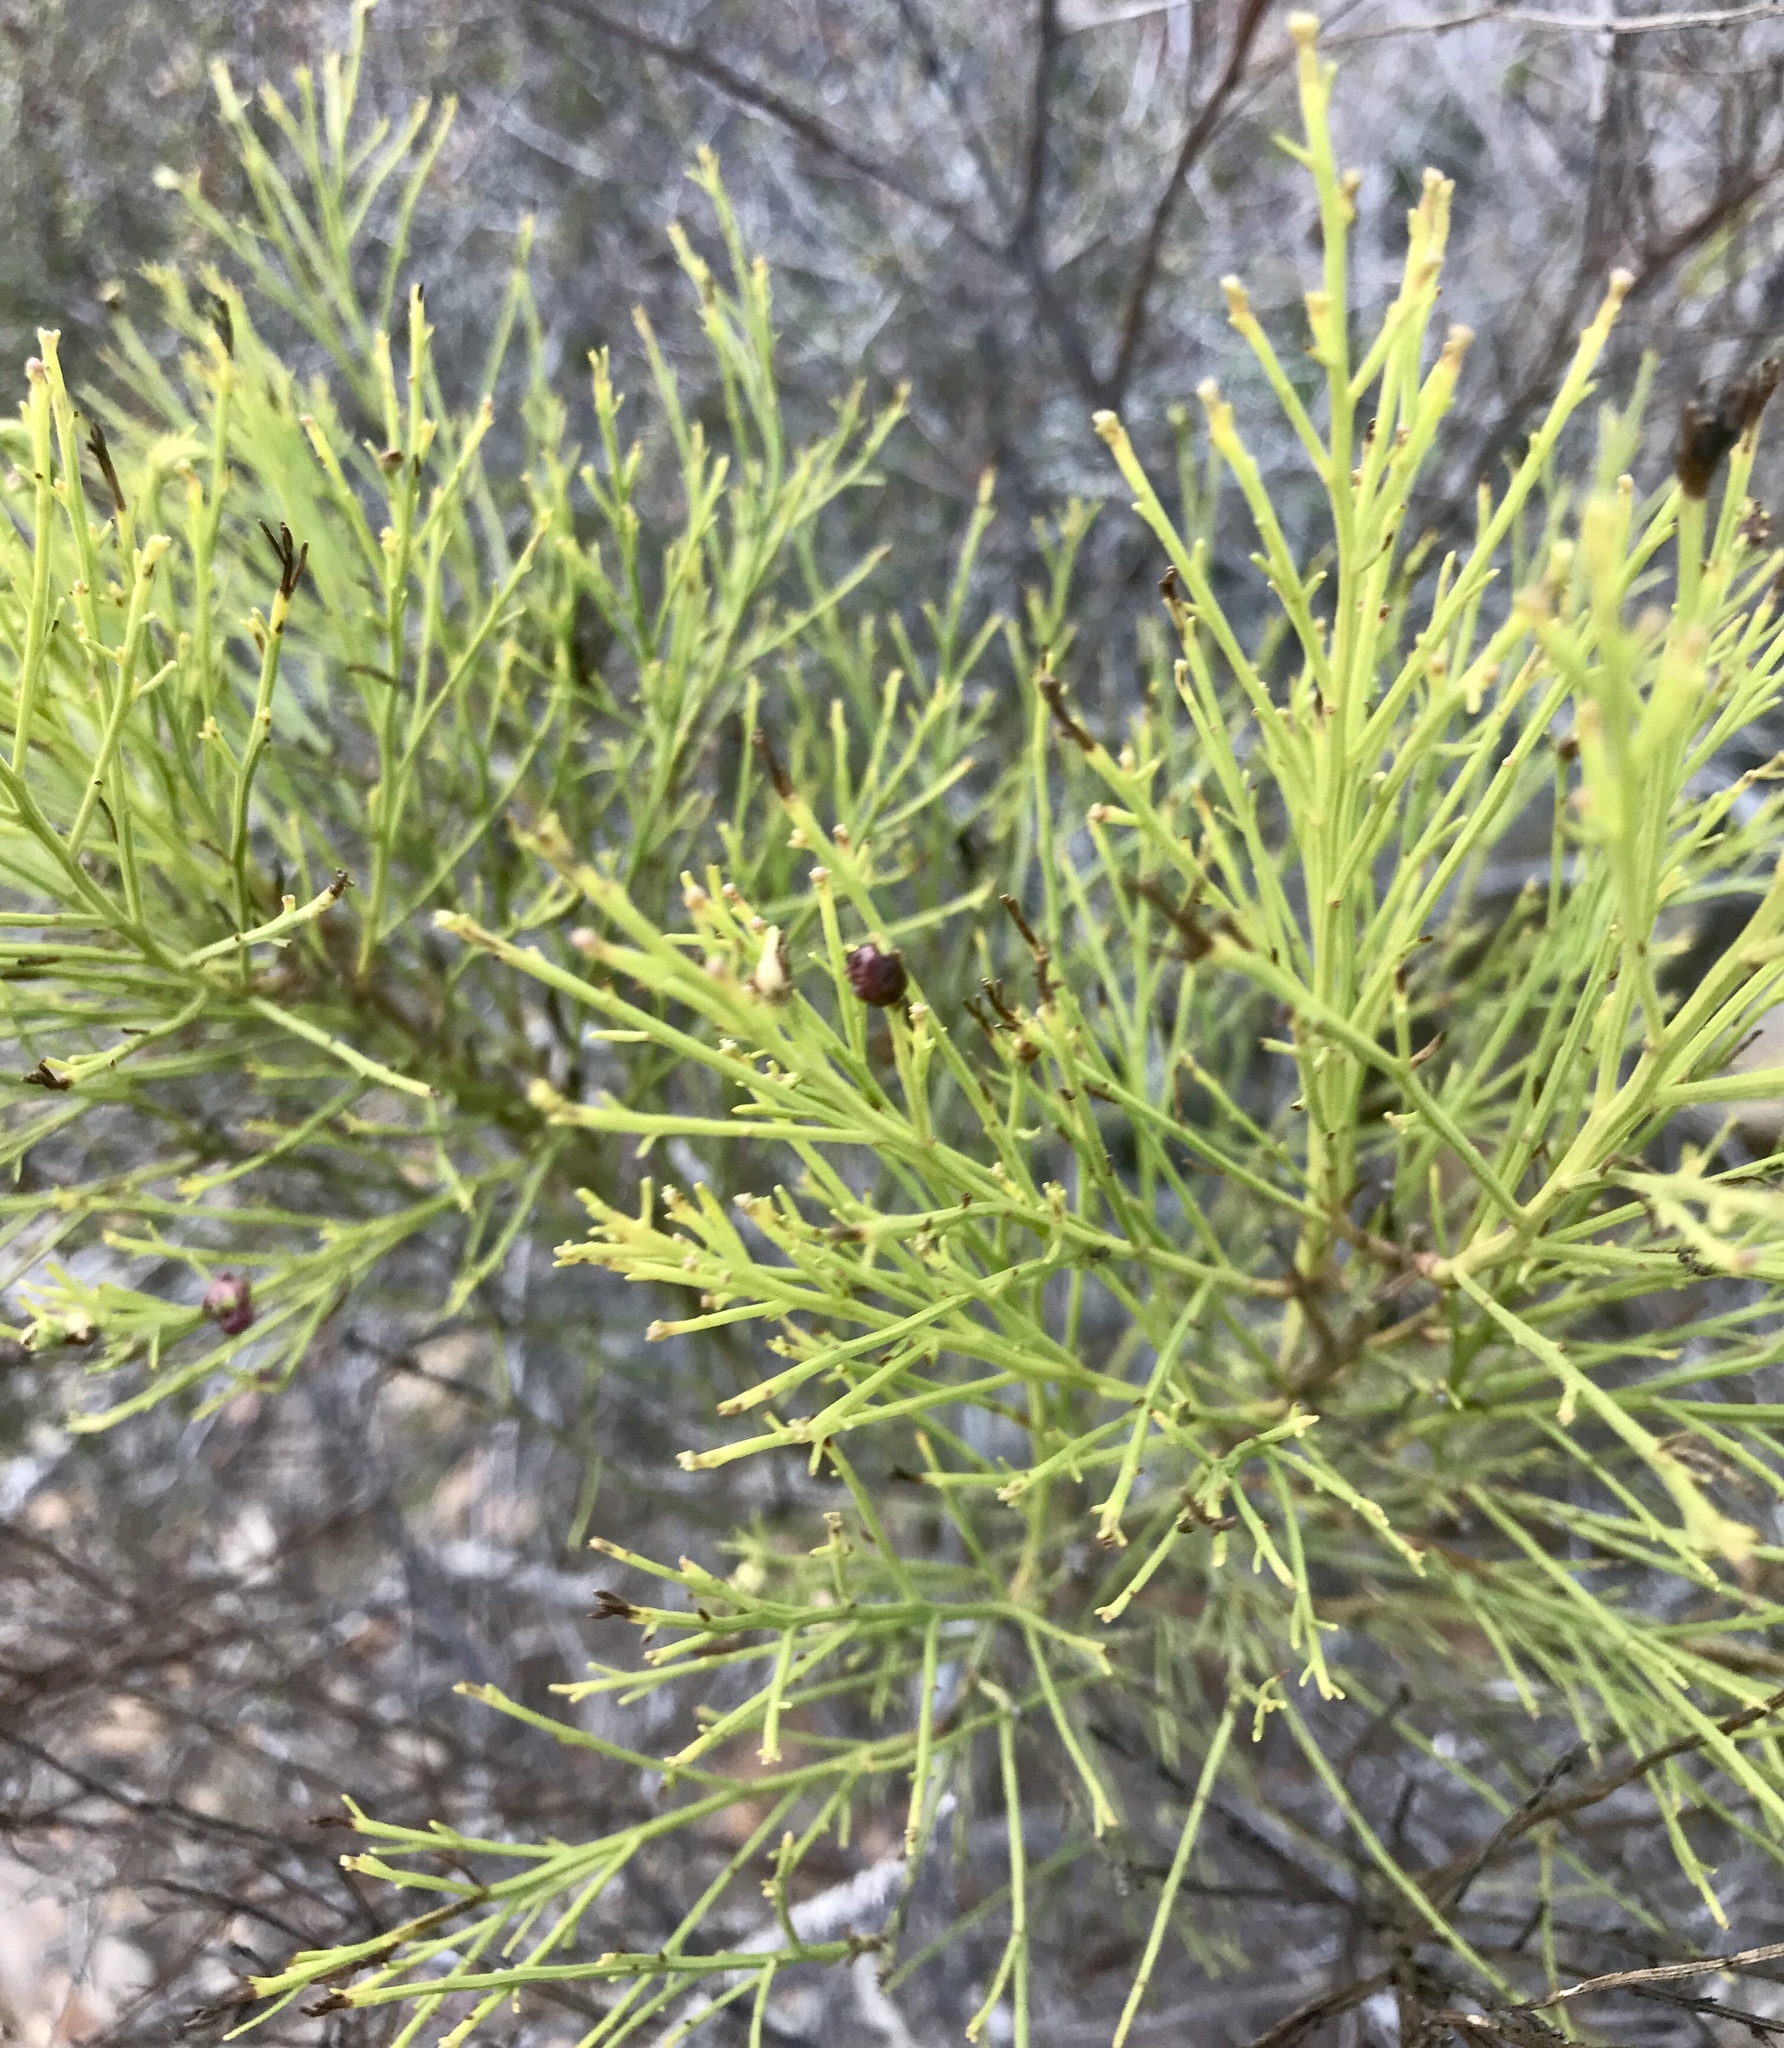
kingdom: Plantae
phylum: Tracheophyta
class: Magnoliopsida
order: Asterales
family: Asteraceae
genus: Baccharis
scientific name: Baccharis sarothroides
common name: Desert-broom
